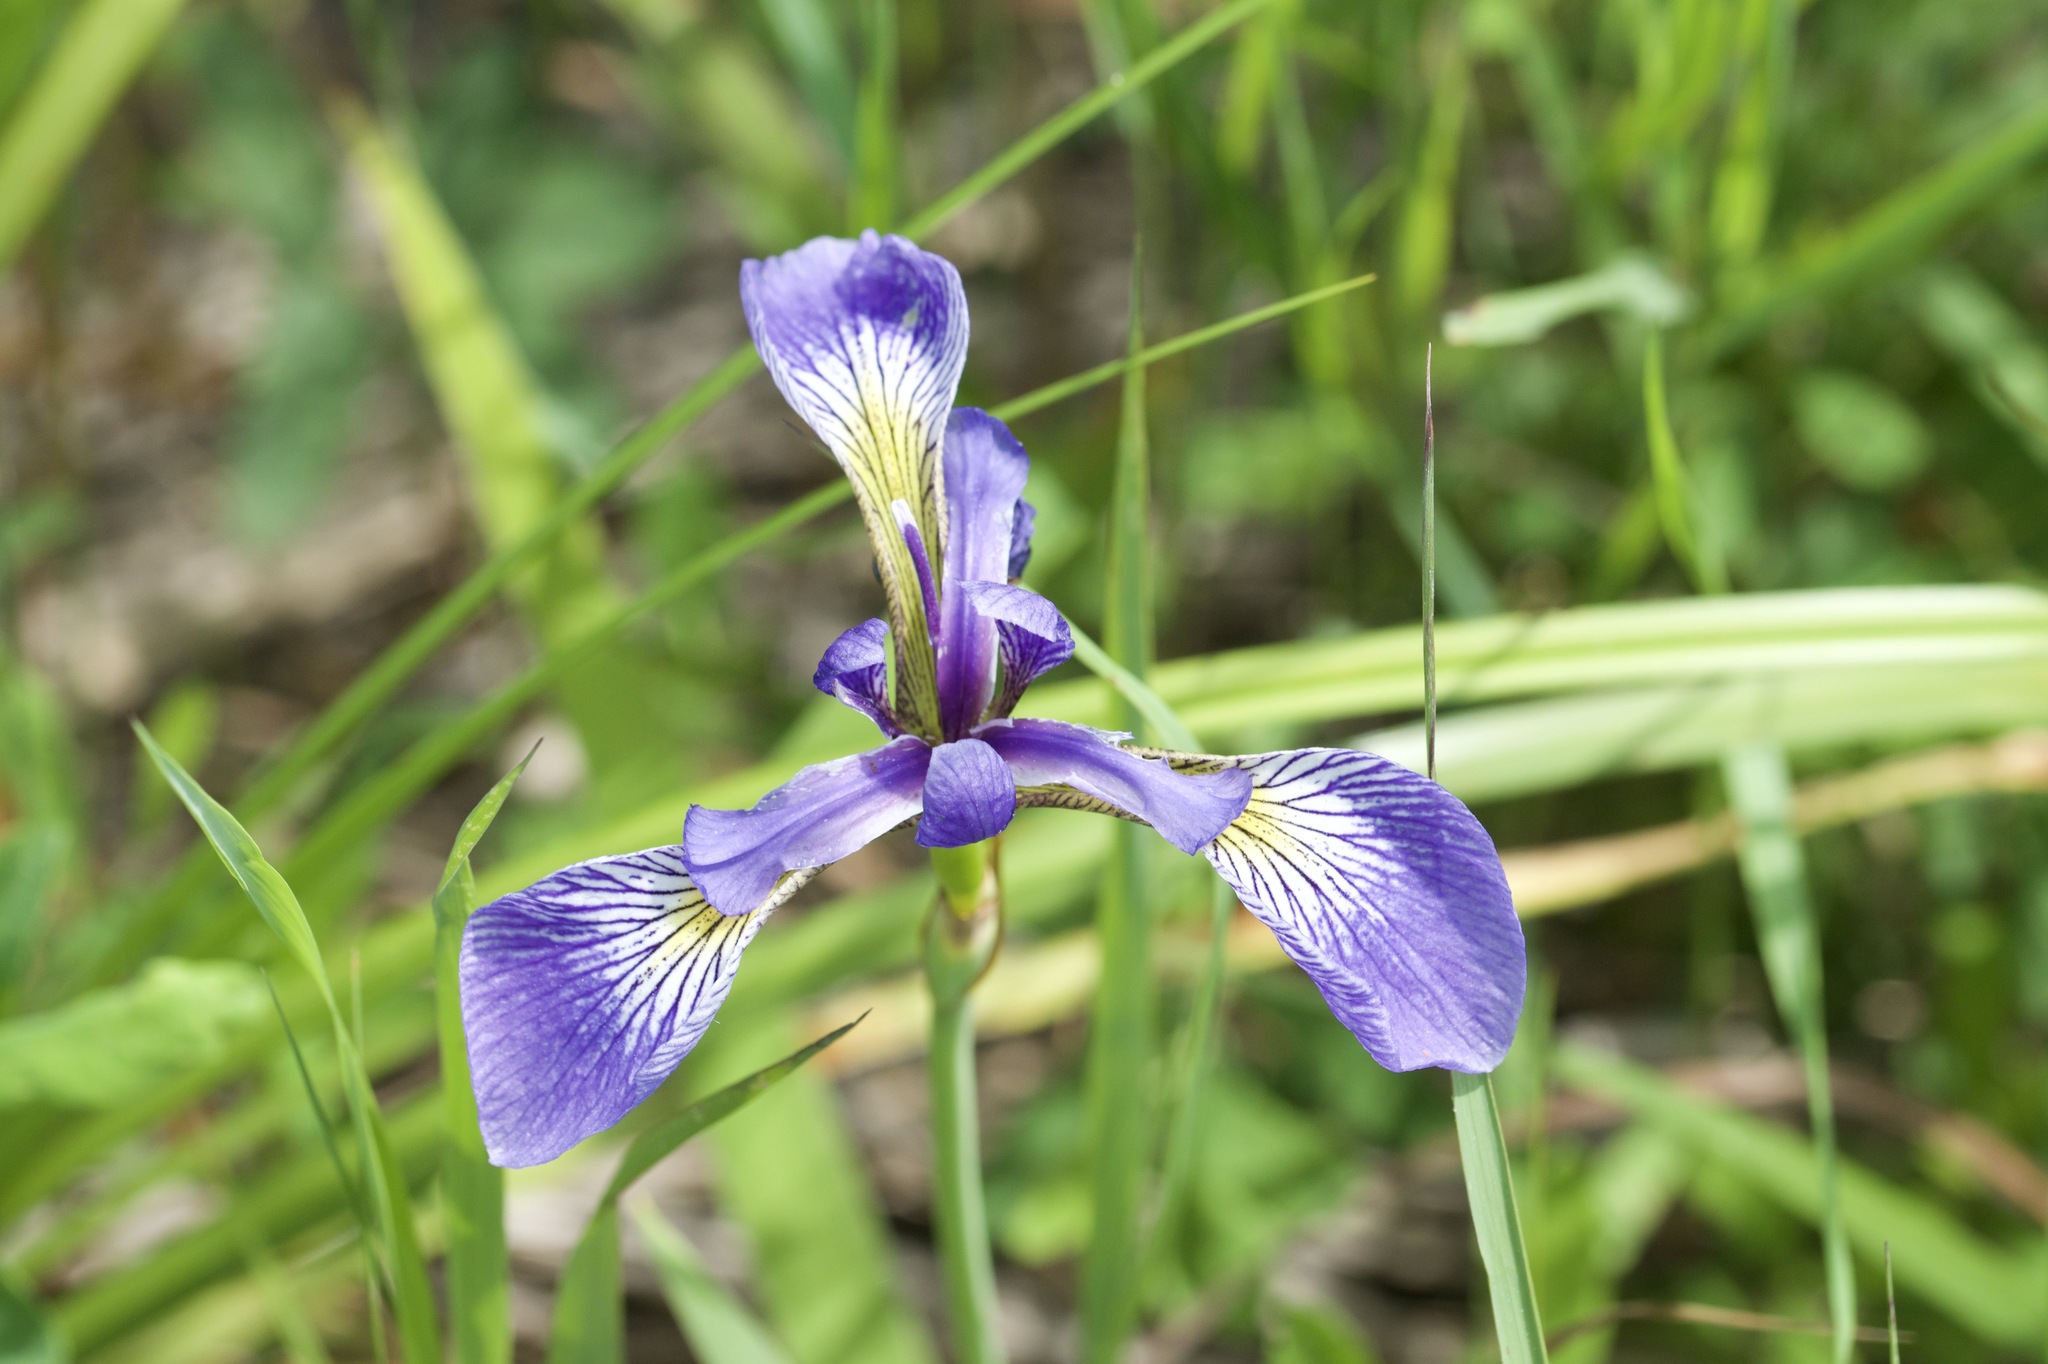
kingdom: Plantae
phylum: Tracheophyta
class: Liliopsida
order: Asparagales
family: Iridaceae
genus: Iris
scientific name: Iris versicolor
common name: Purple iris
